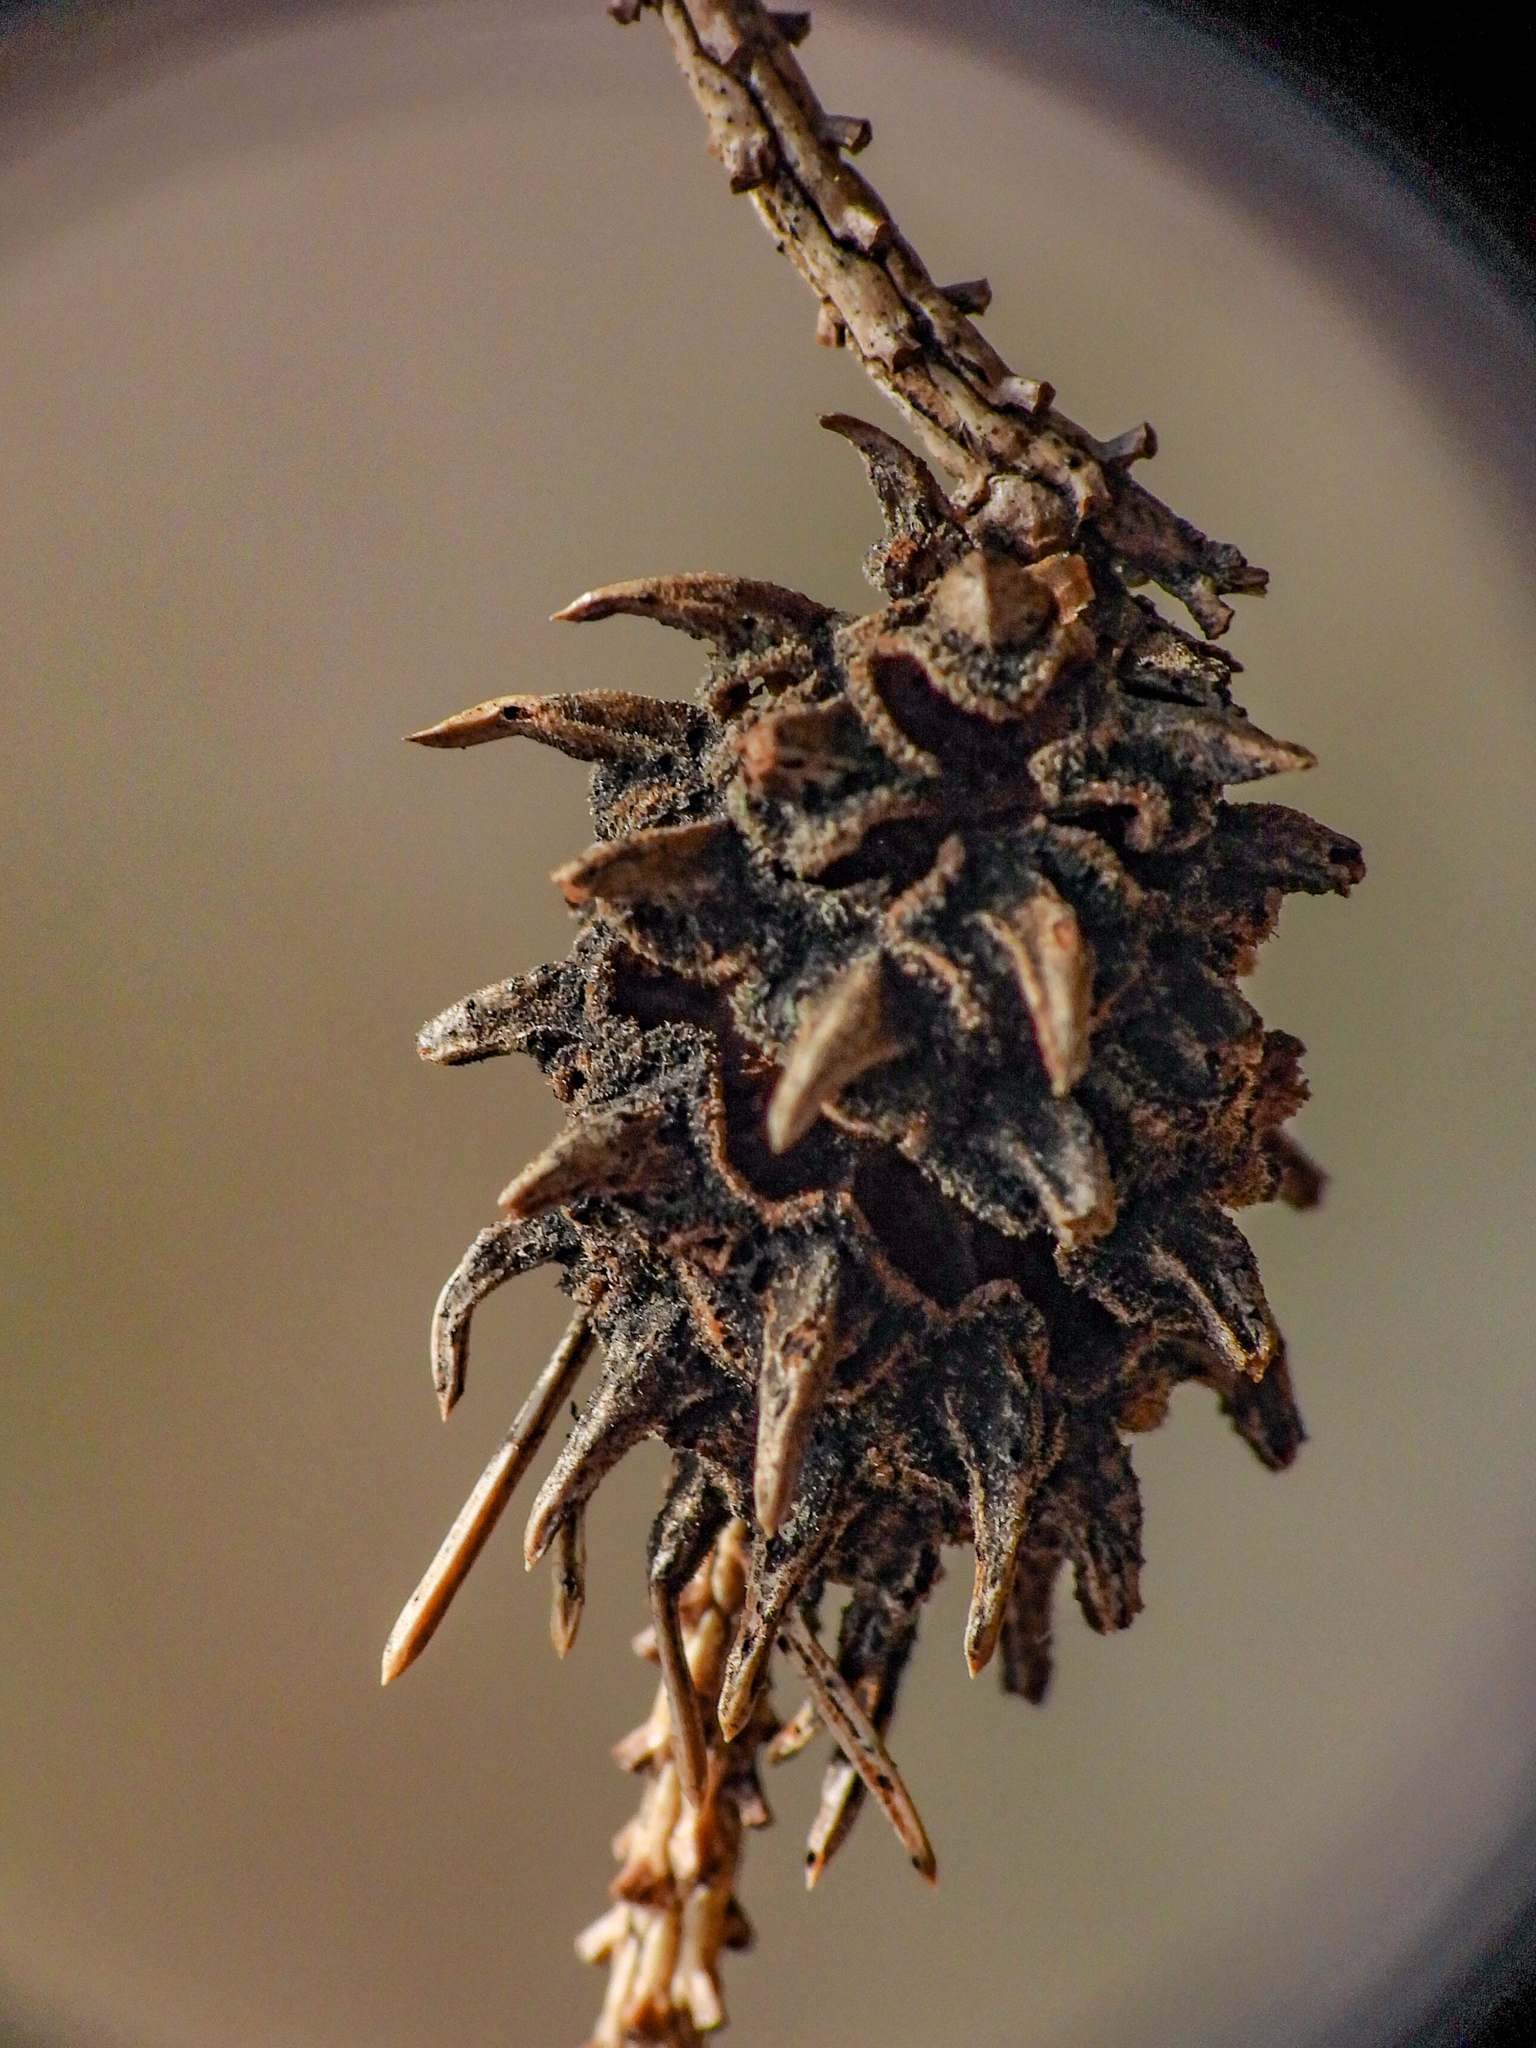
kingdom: Animalia
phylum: Arthropoda
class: Insecta
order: Hemiptera
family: Adelgidae
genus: Adelges
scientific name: Adelges abietis
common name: Eastern spruce gall adelgid
